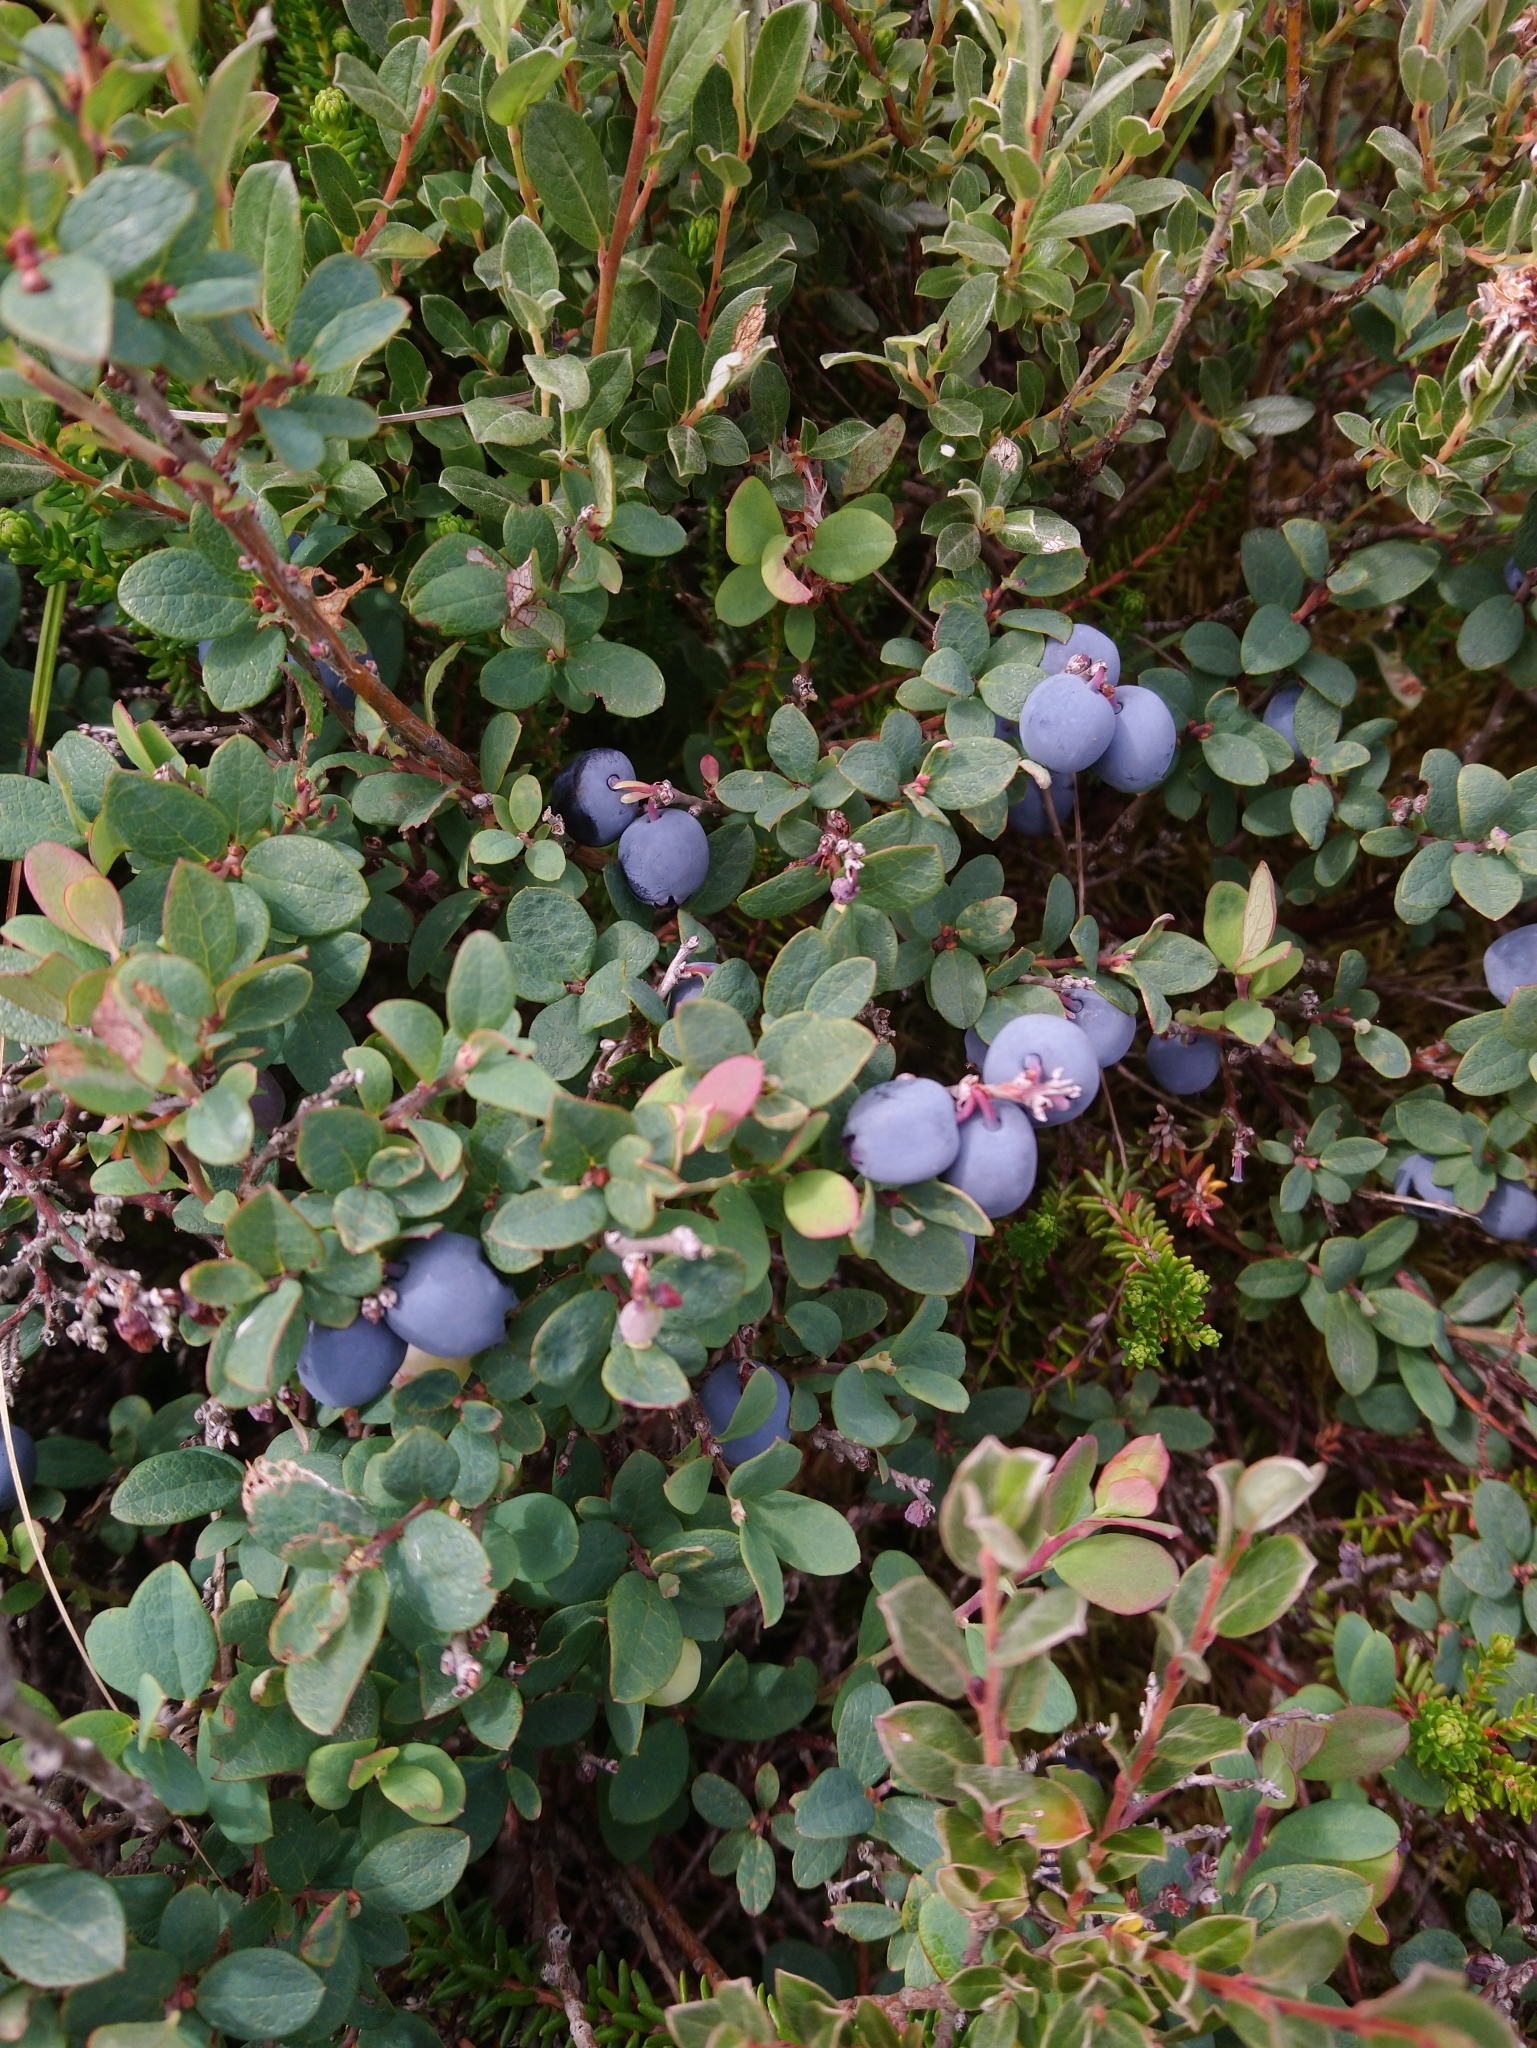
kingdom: Plantae
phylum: Tracheophyta
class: Magnoliopsida
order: Ericales
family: Ericaceae
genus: Vaccinium
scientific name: Vaccinium uliginosum
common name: Bog bilberry
